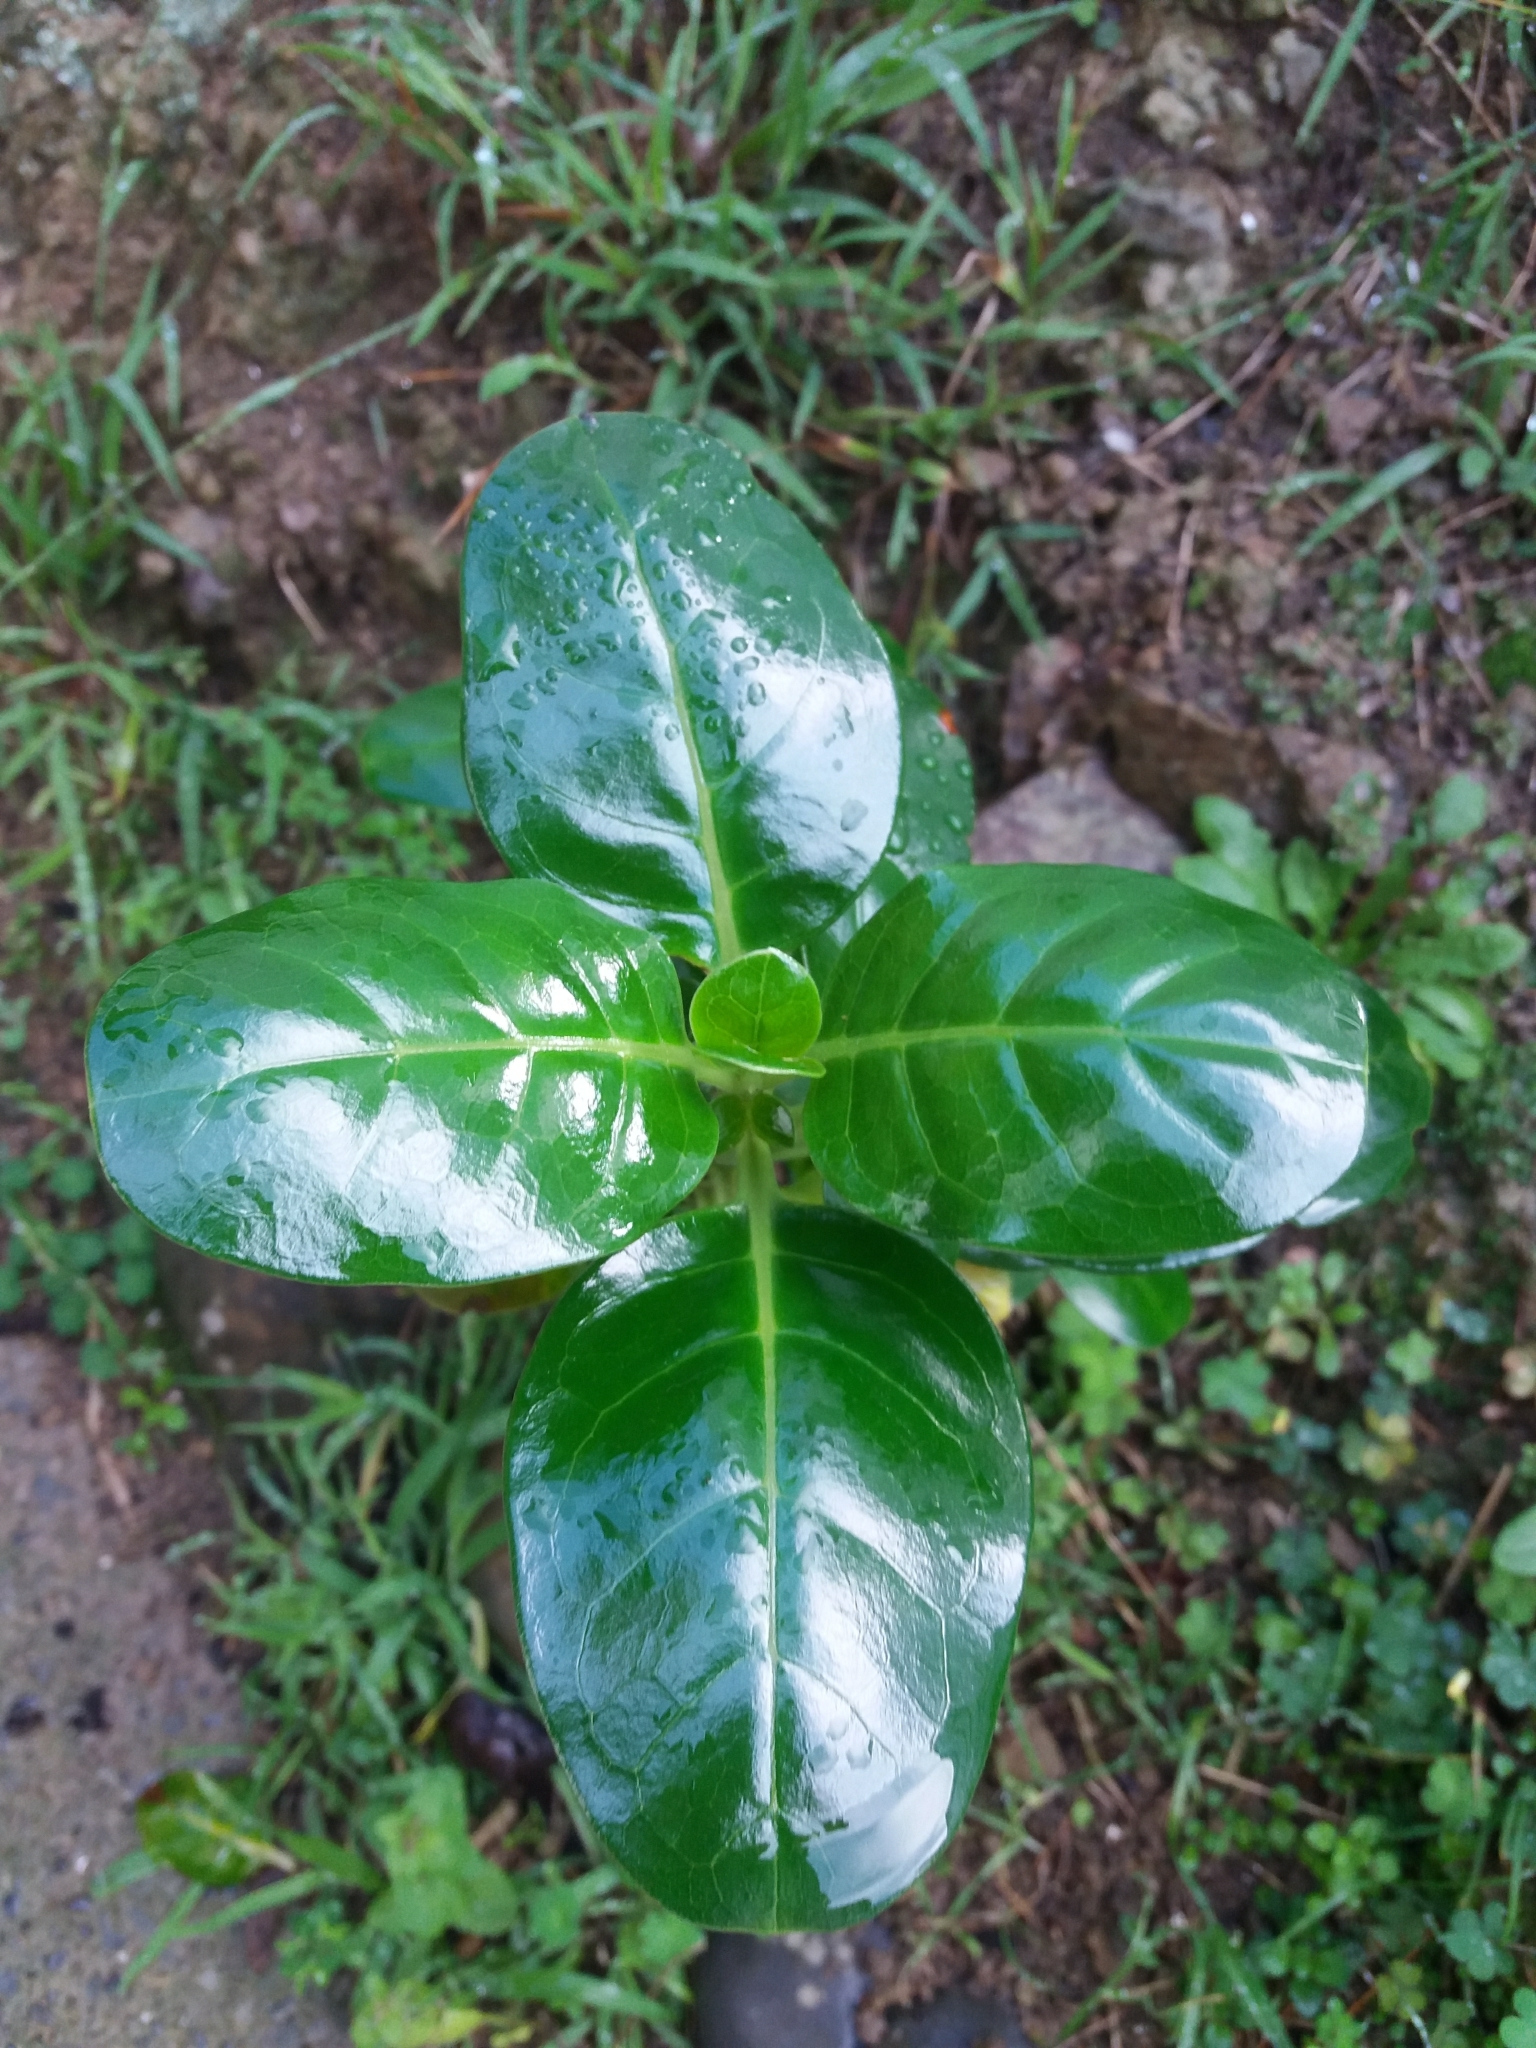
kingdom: Plantae
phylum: Tracheophyta
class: Magnoliopsida
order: Gentianales
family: Rubiaceae
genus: Coprosma
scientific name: Coprosma repens
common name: Tree bedstraw
